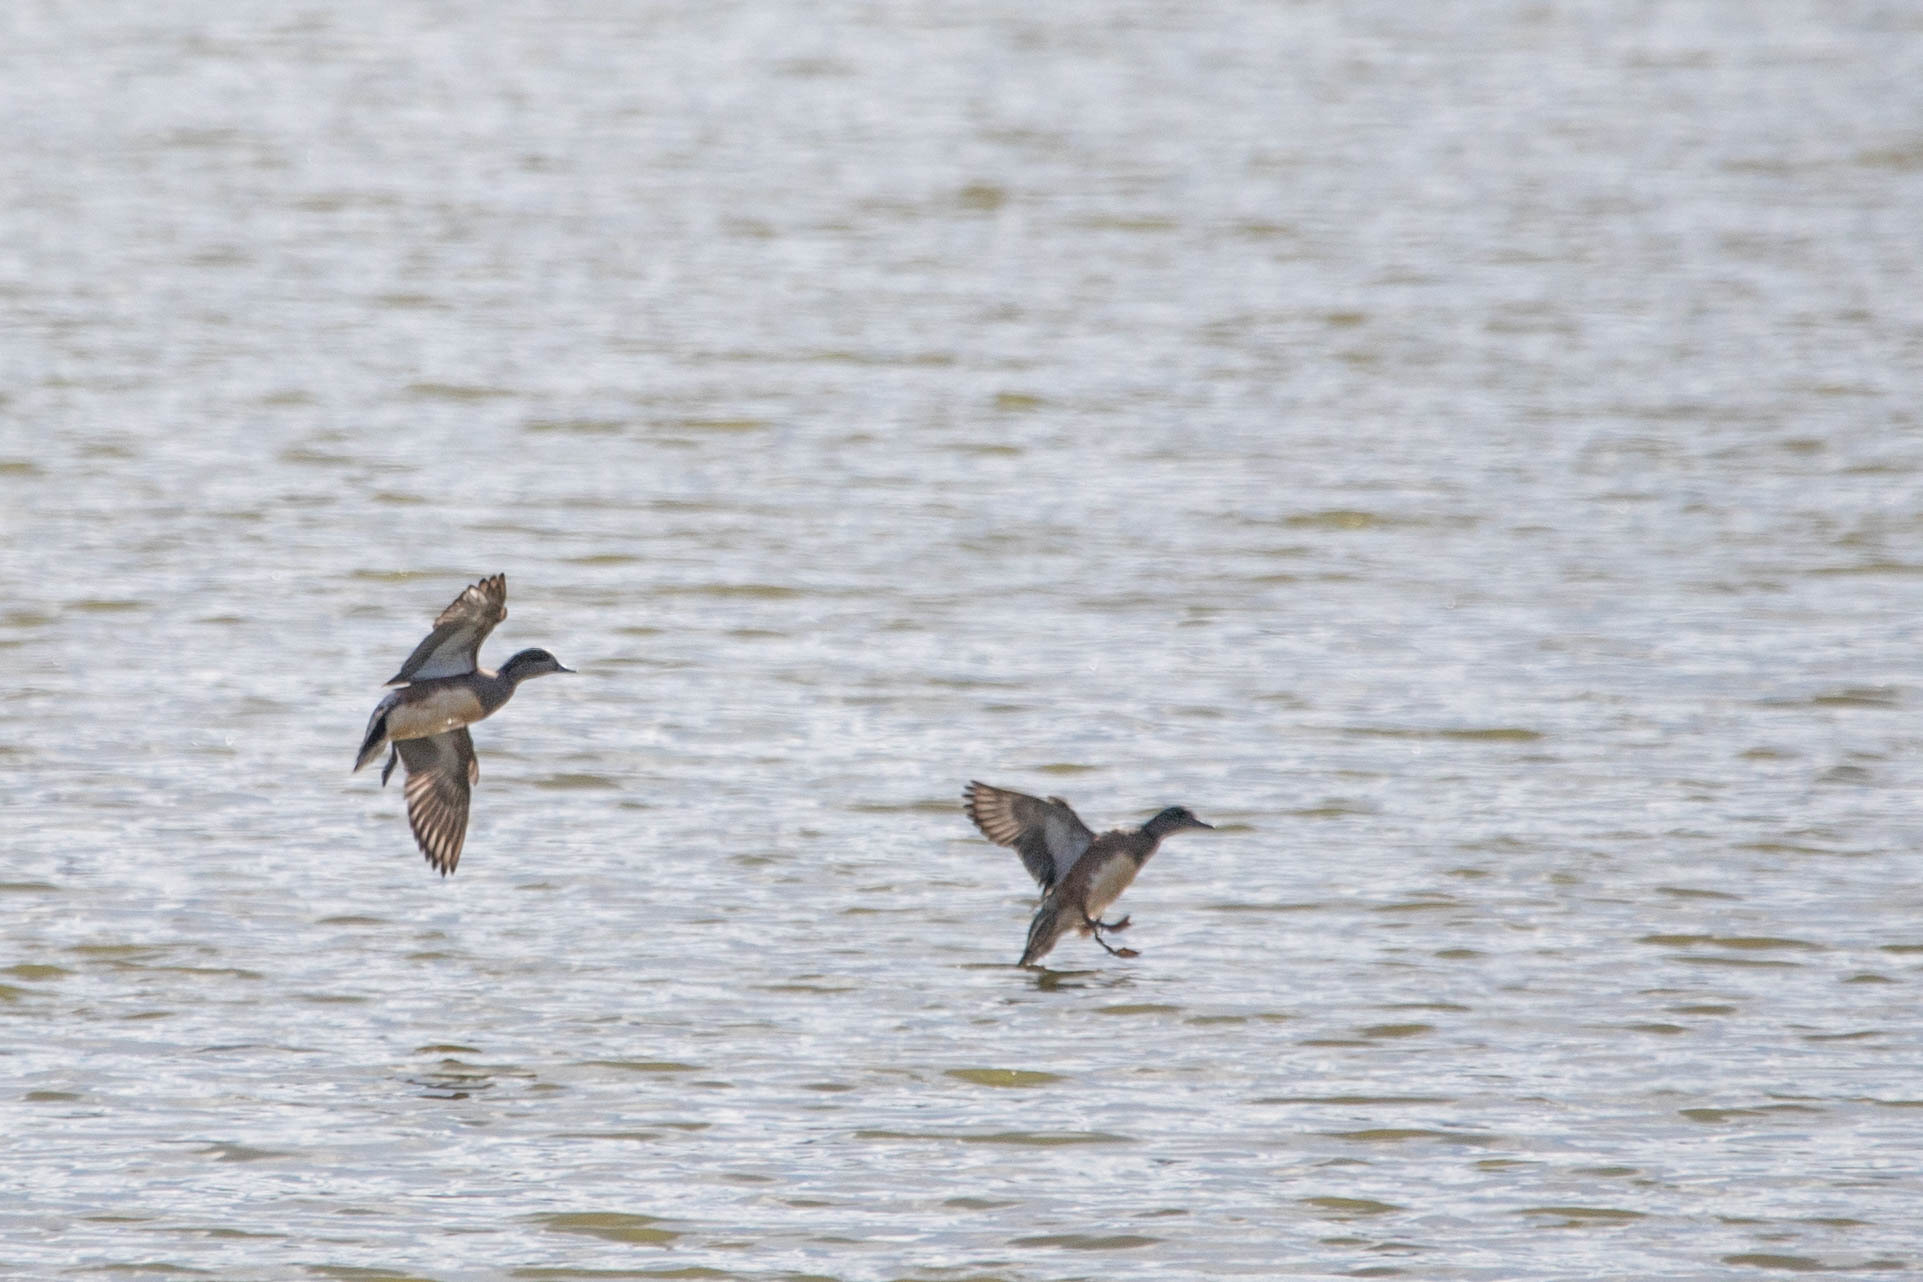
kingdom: Animalia
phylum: Chordata
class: Aves
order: Anseriformes
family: Anatidae
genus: Mareca
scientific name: Mareca americana
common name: American wigeon
